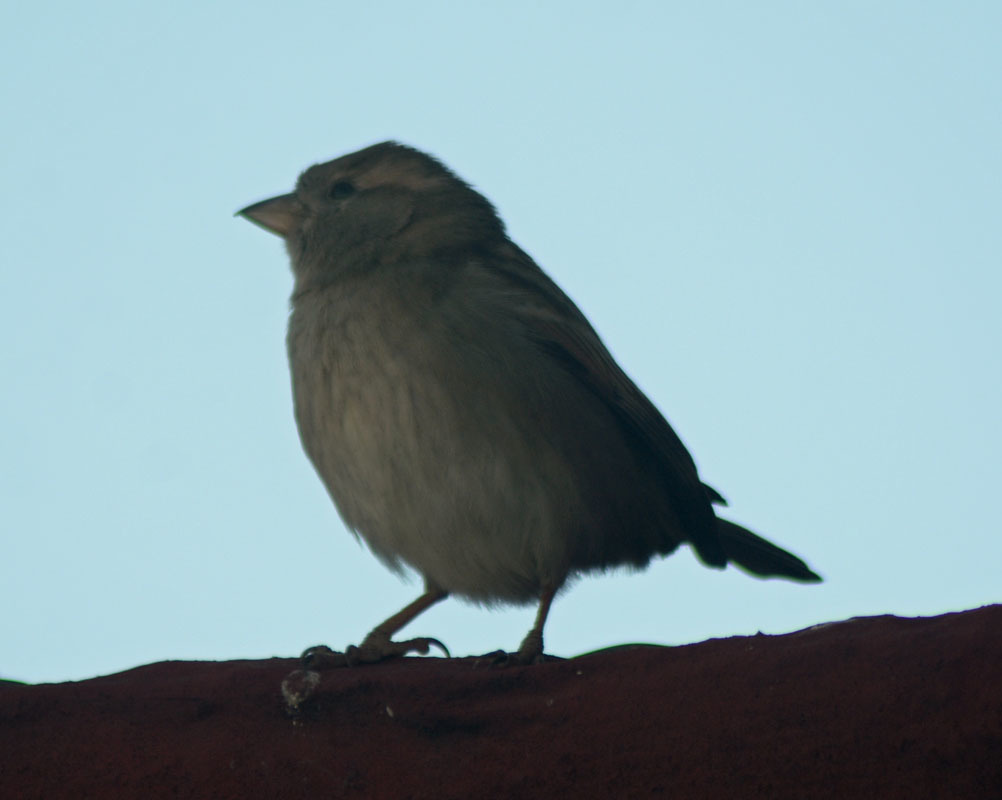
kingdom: Animalia
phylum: Chordata
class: Aves
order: Passeriformes
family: Passeridae
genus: Passer
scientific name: Passer domesticus
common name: House sparrow
